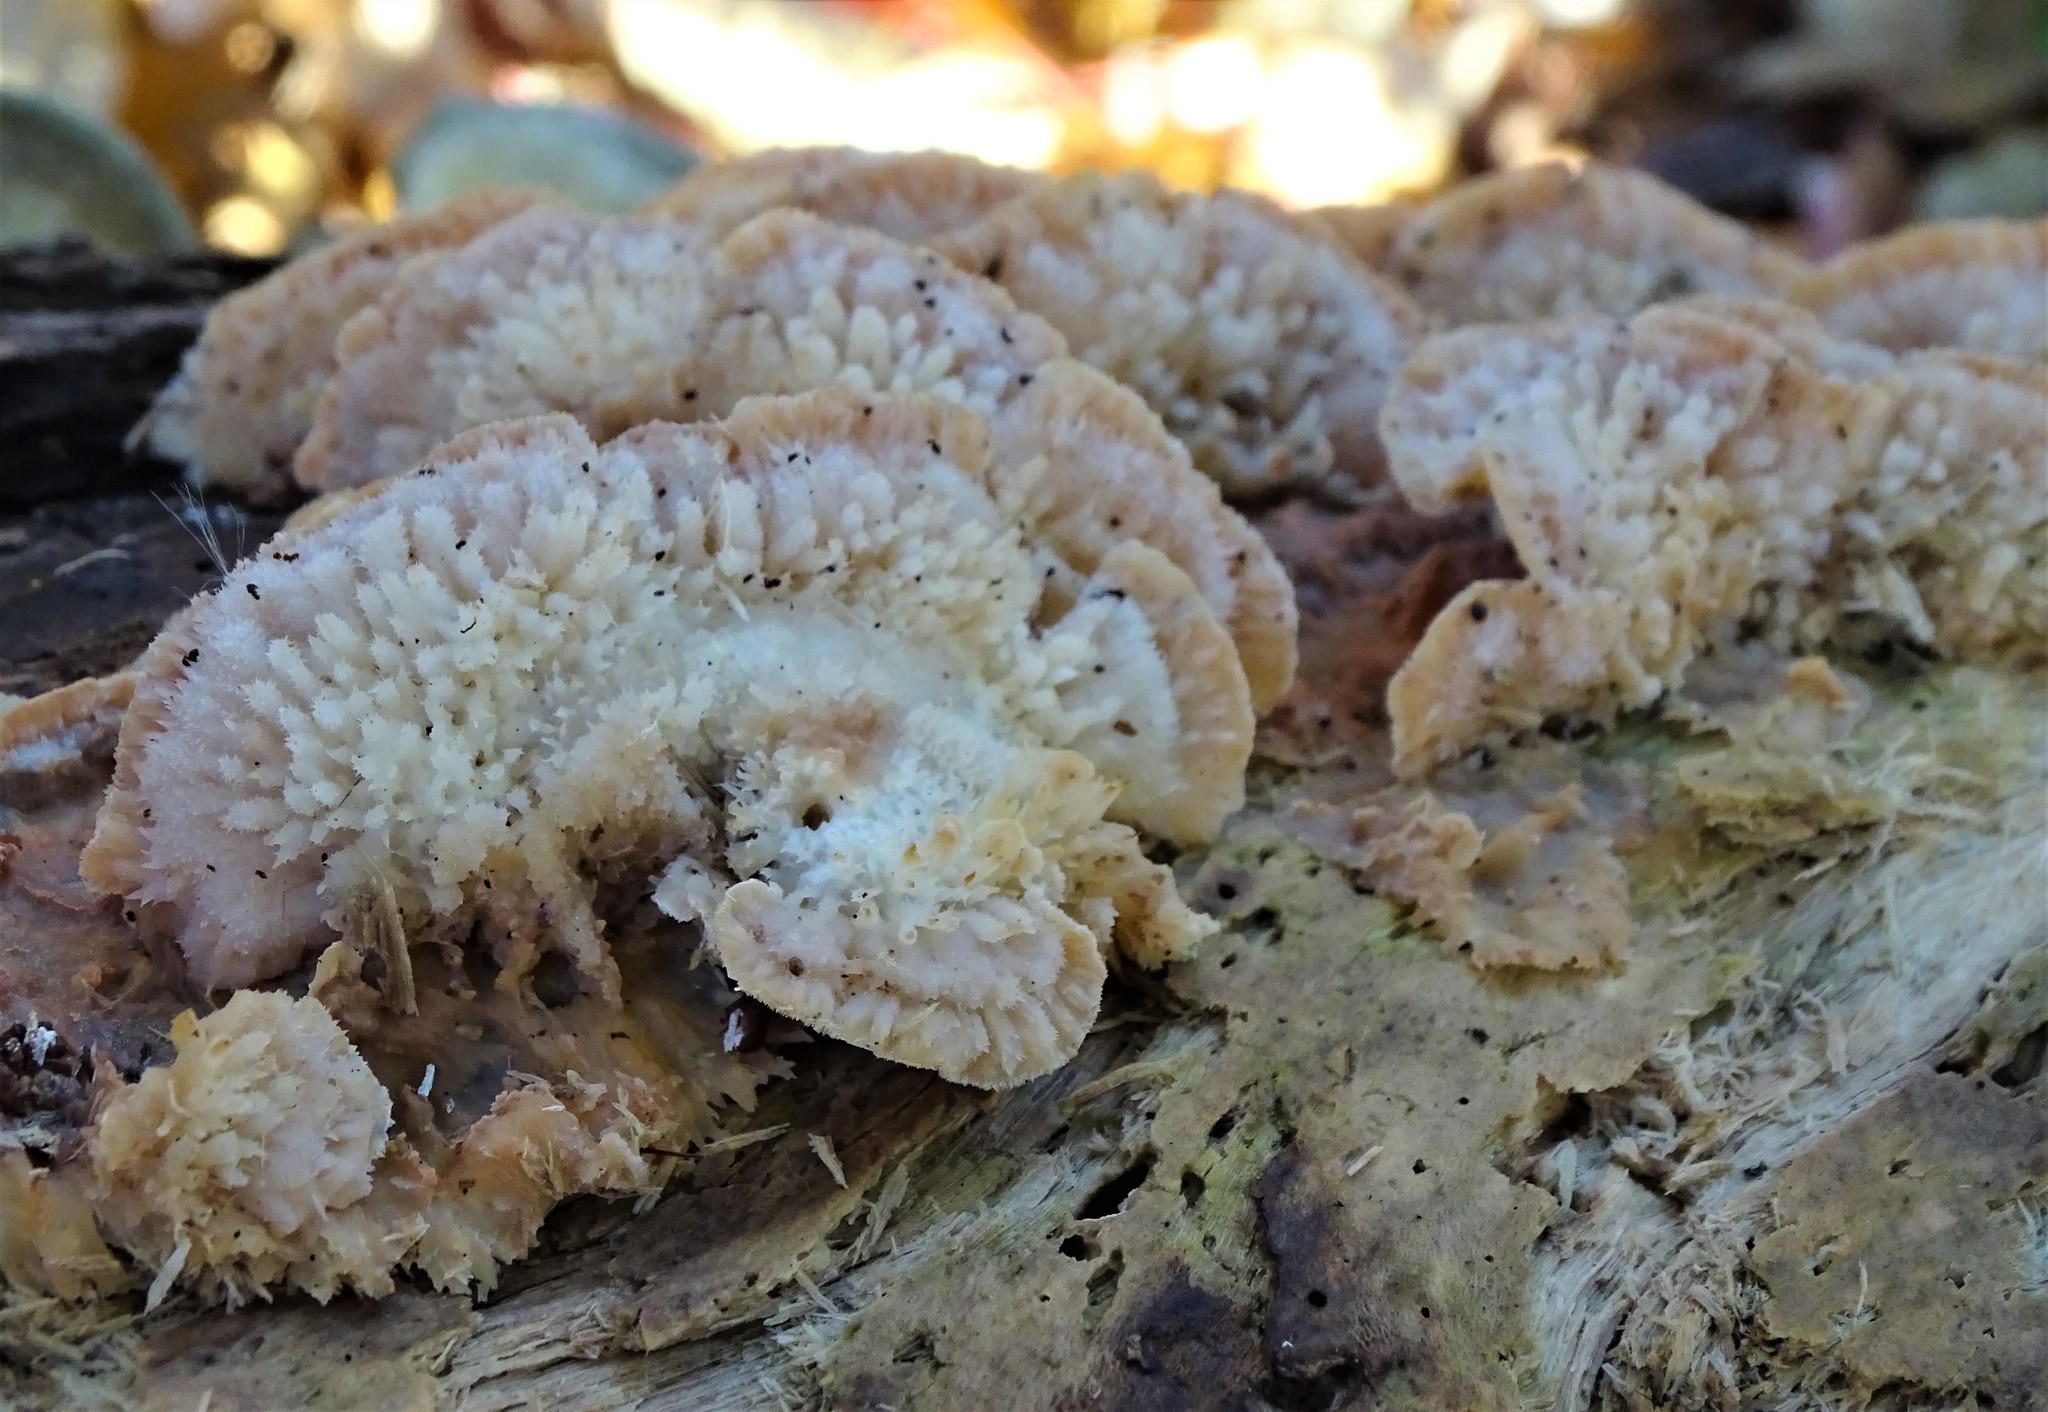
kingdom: Fungi
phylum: Basidiomycota
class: Agaricomycetes
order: Polyporales
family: Meruliaceae
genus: Phlebia
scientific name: Phlebia tremellosa
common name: Jelly rot
